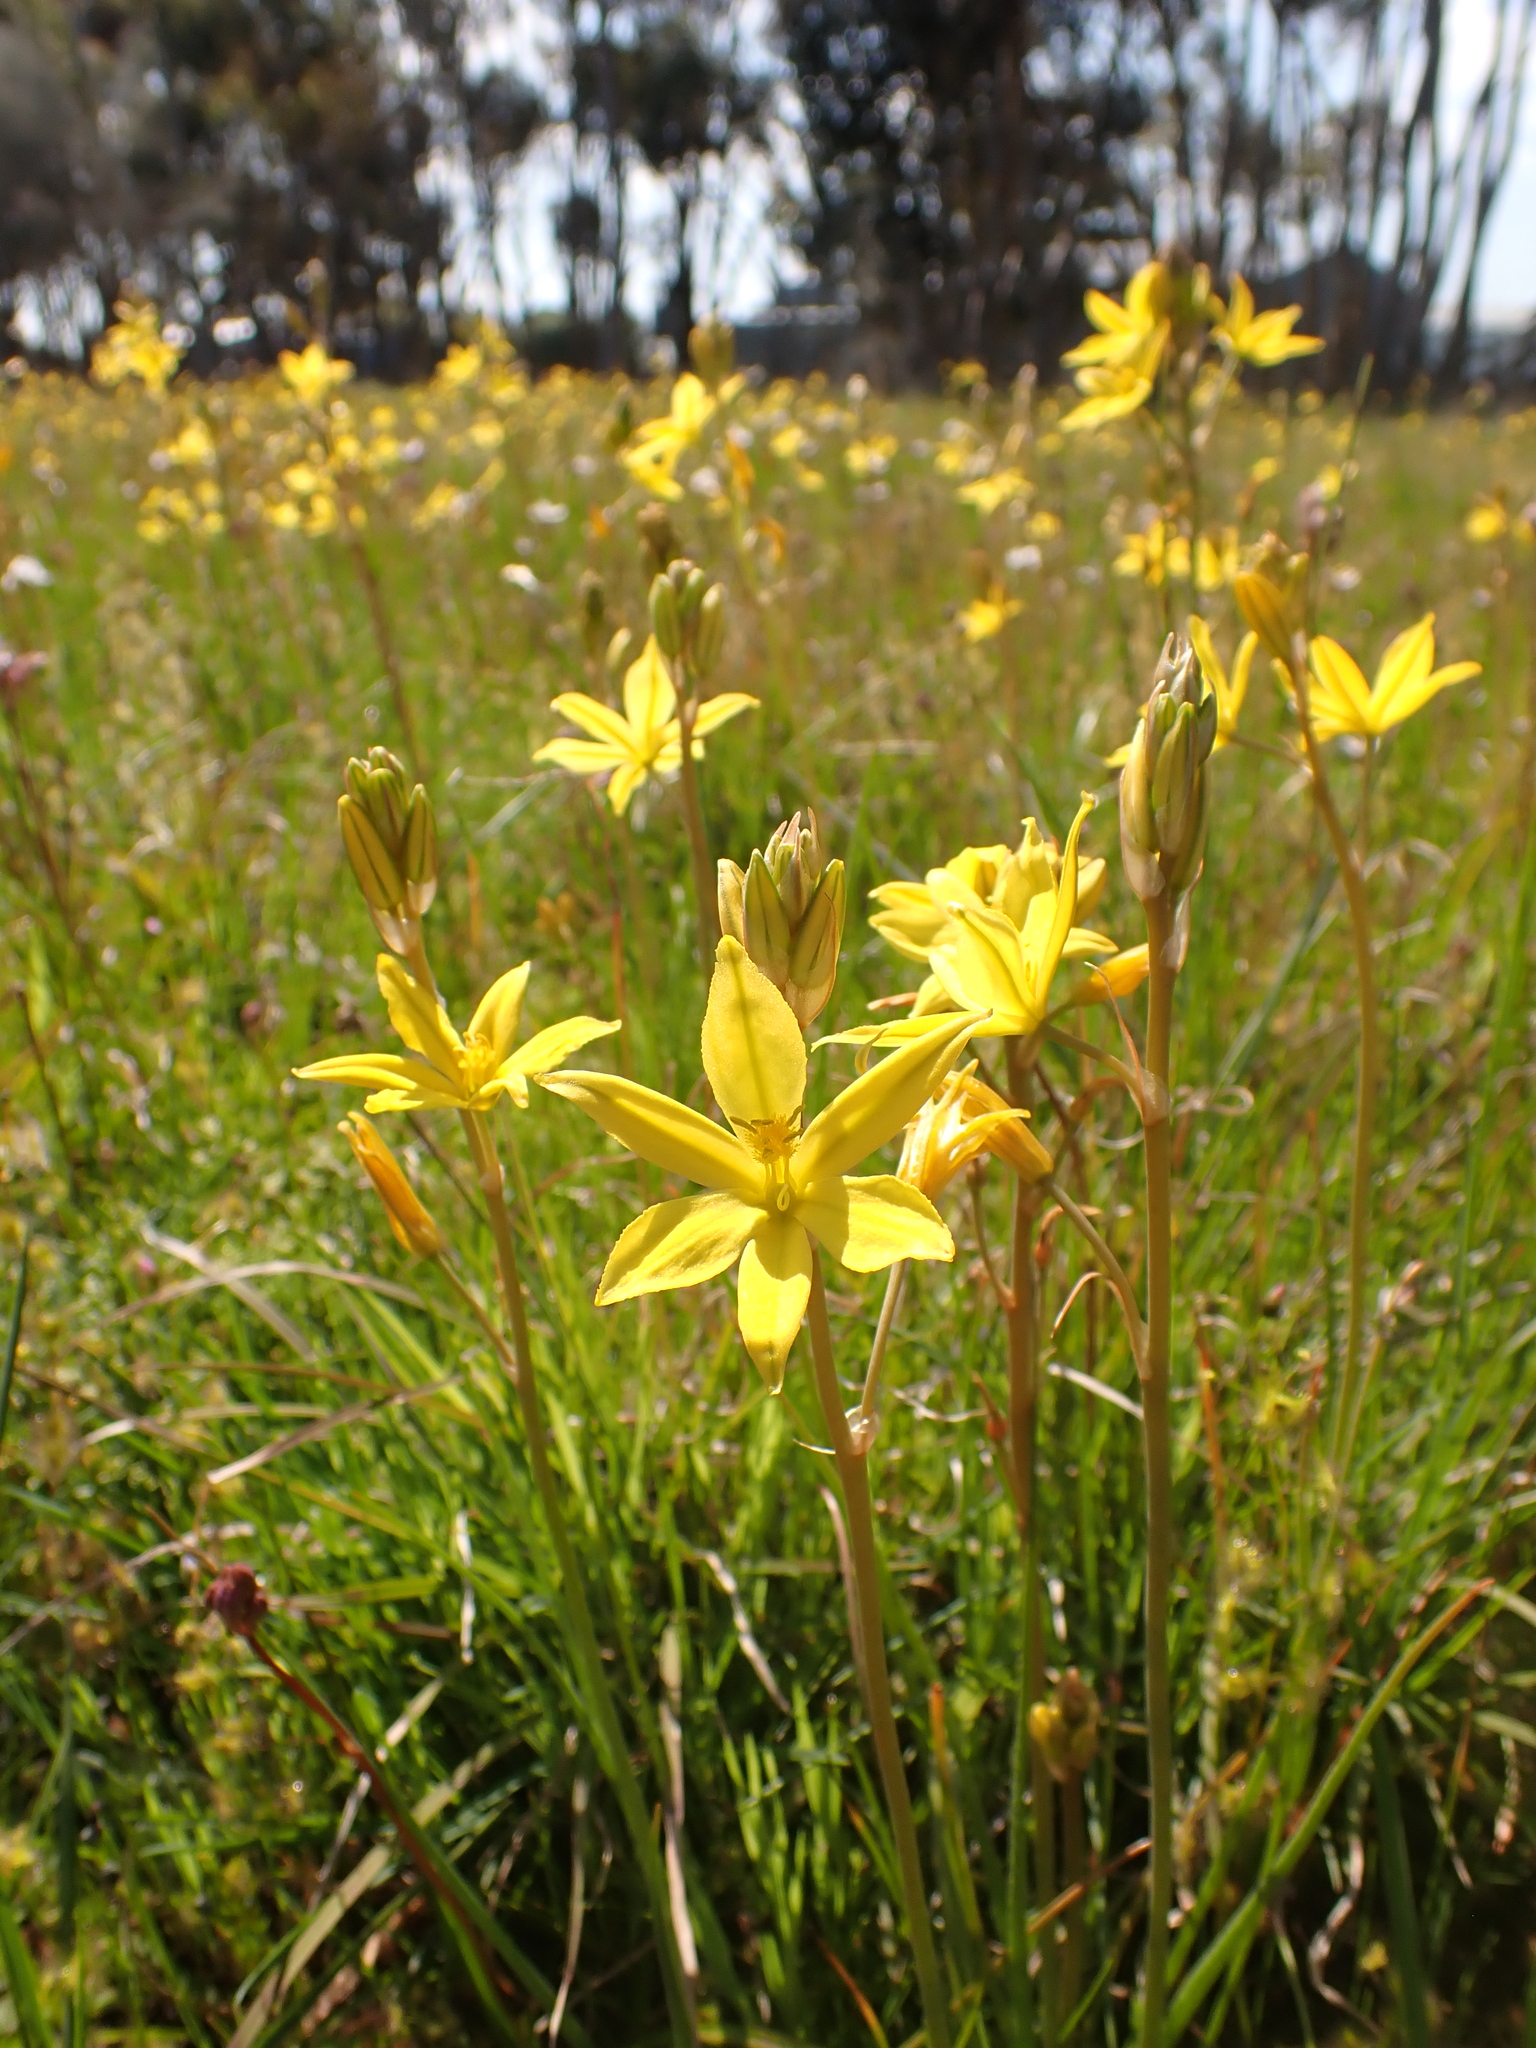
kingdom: Plantae
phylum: Tracheophyta
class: Liliopsida
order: Asparagales
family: Asphodelaceae
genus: Bulbine
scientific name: Bulbine bulbosa
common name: Golden-lily
